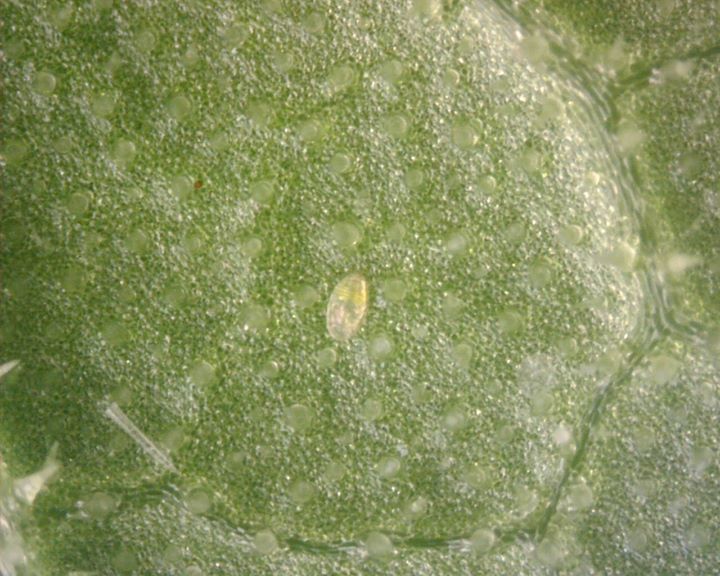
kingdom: Animalia
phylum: Arthropoda
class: Insecta
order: Hemiptera
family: Aleyrodidae
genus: Bemisia
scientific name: Bemisia tabaci
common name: Sweetpotato whitefly
